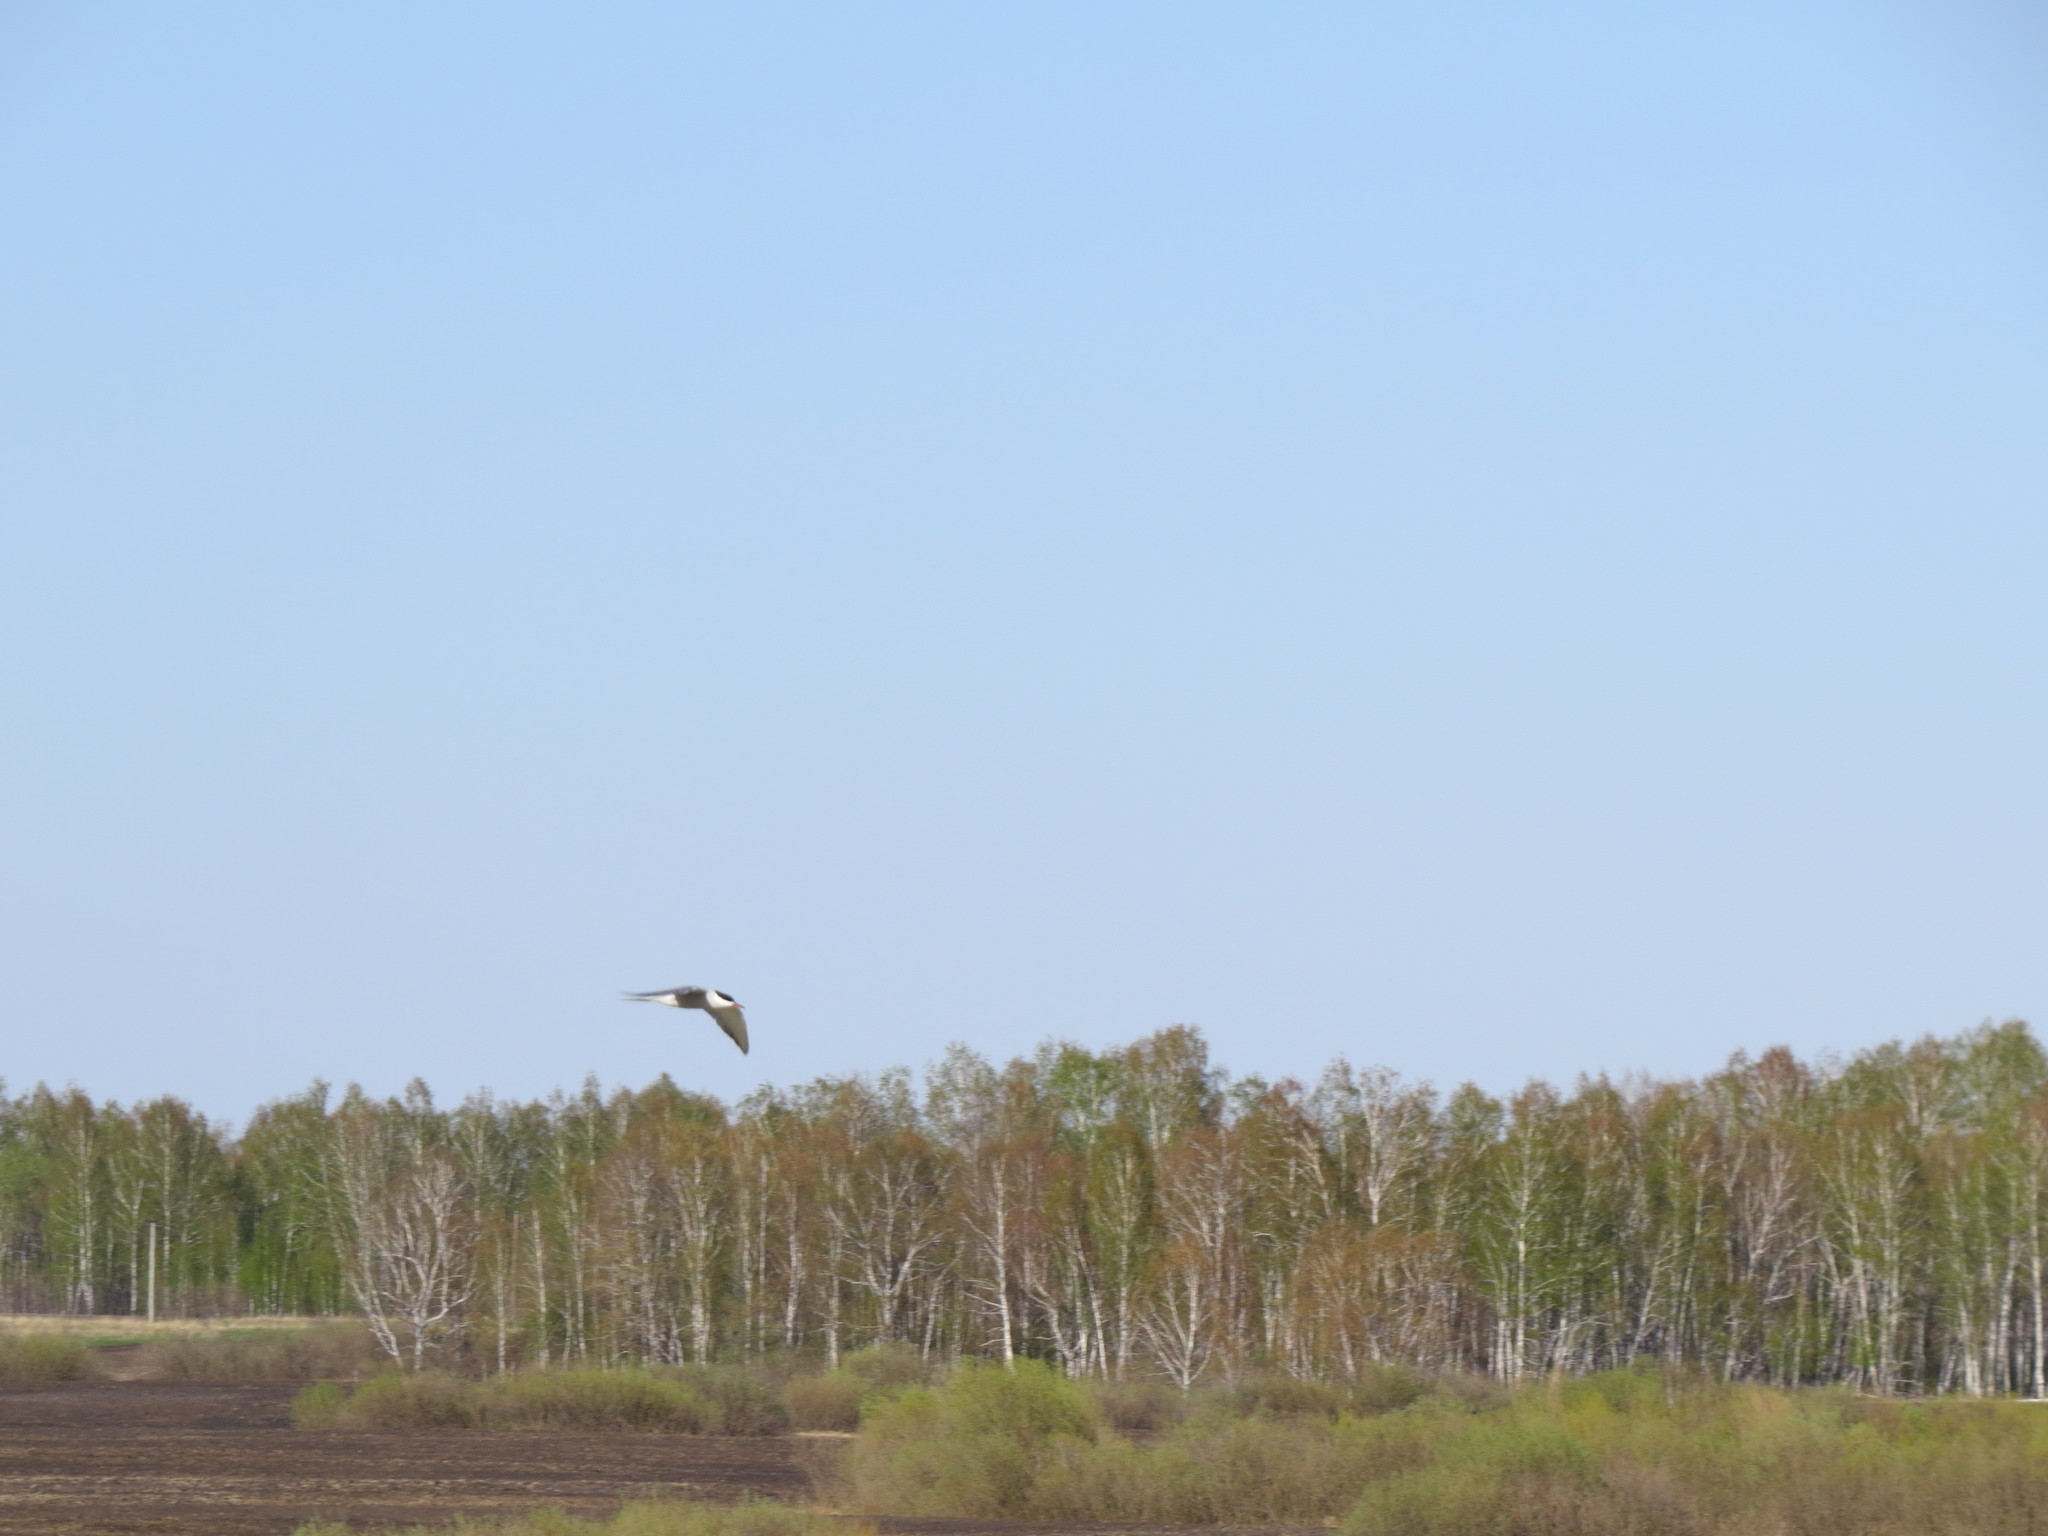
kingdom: Animalia
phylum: Chordata
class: Aves
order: Charadriiformes
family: Laridae
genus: Sterna
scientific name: Sterna hirundo
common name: Common tern
